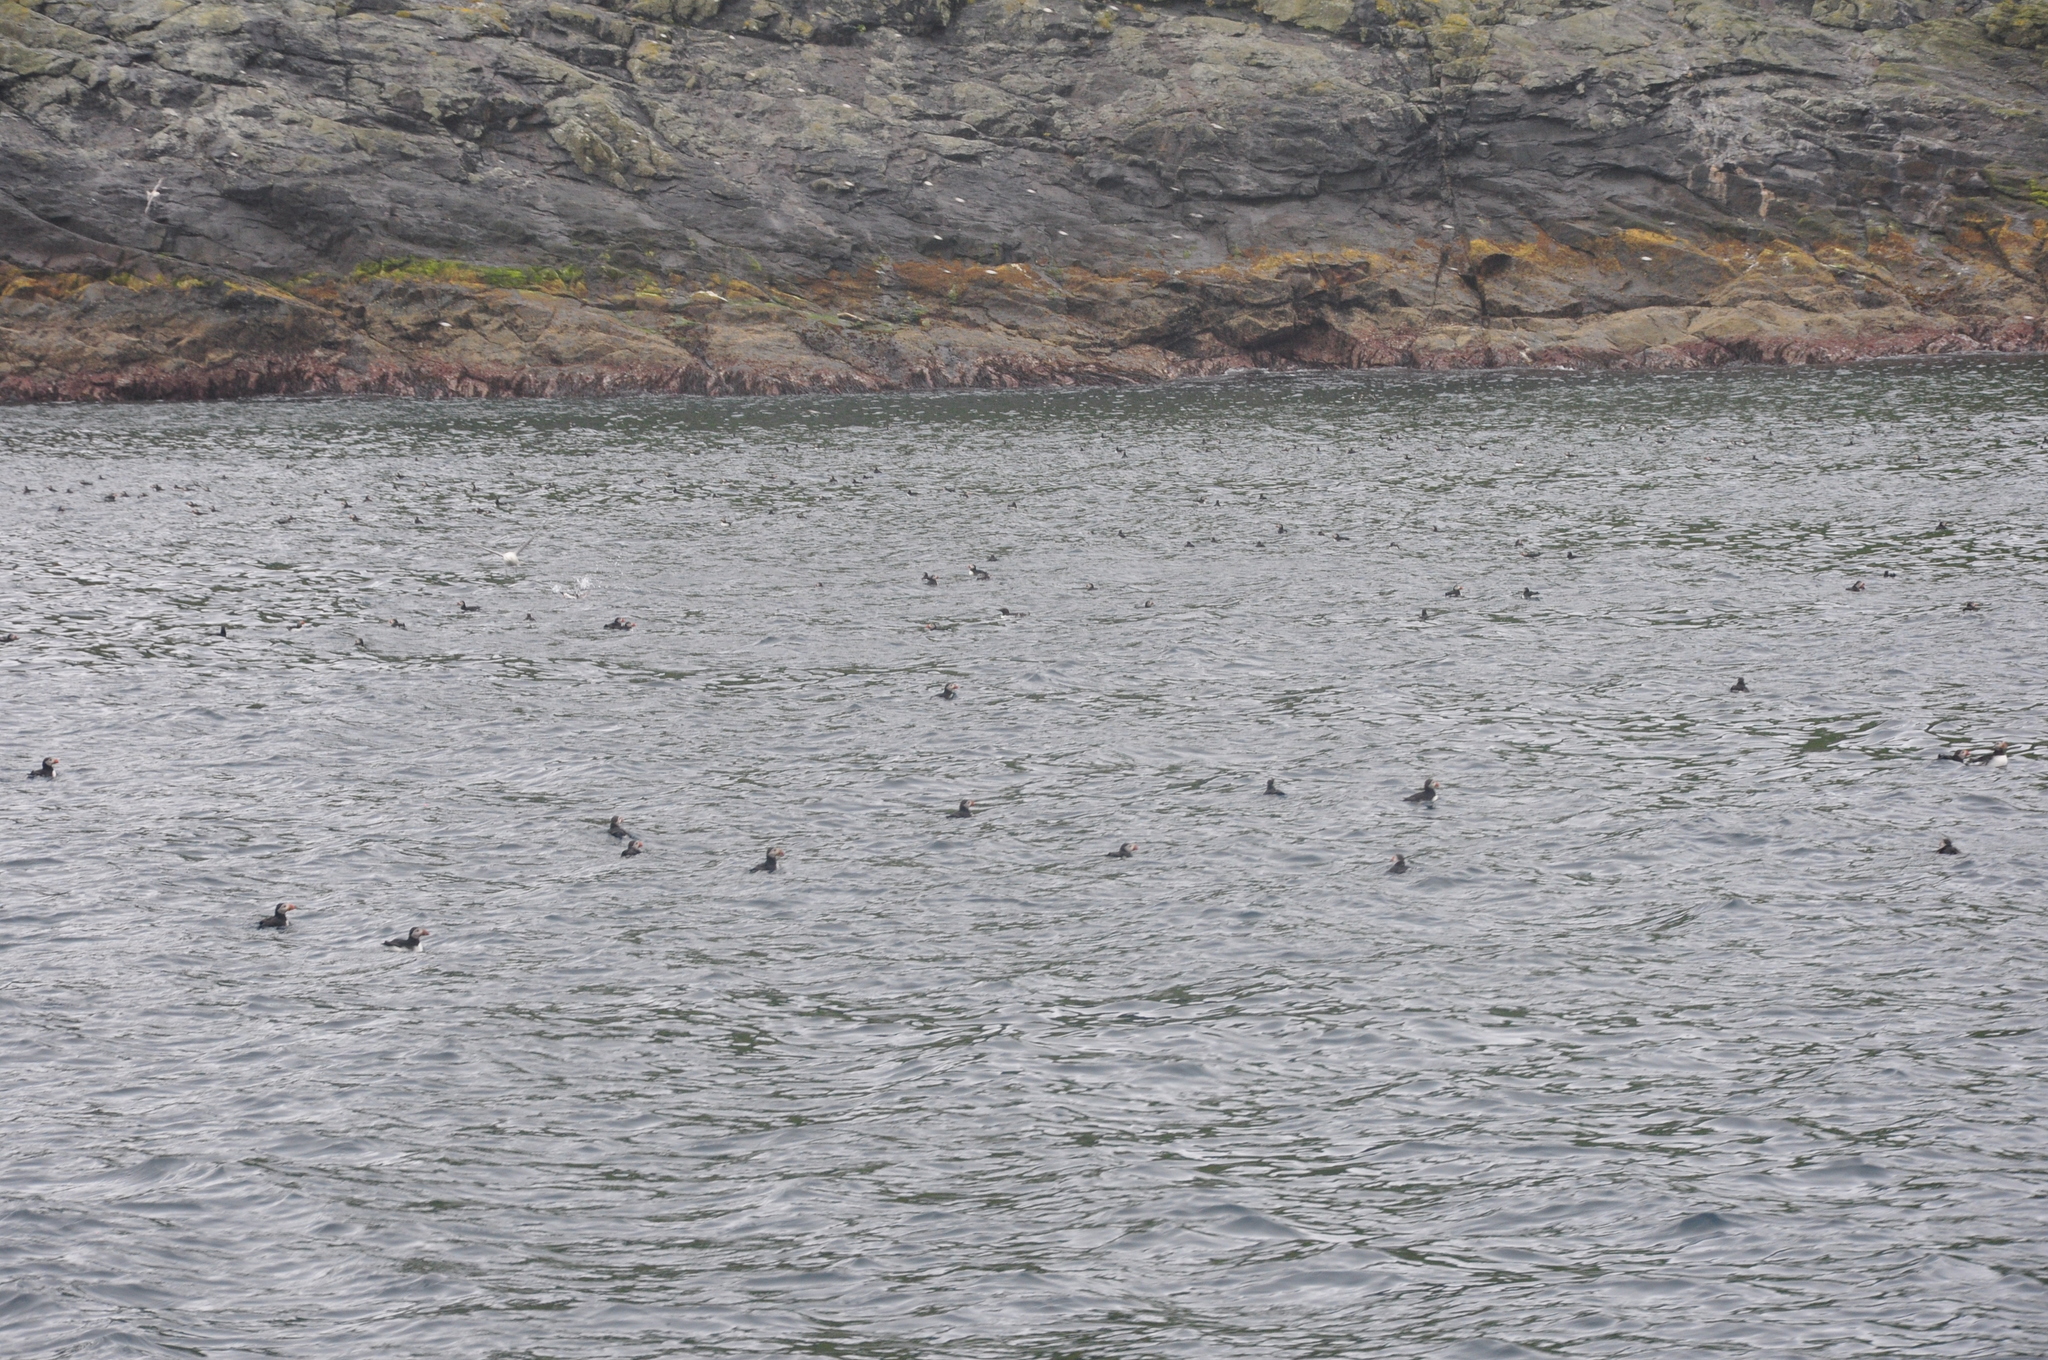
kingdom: Animalia
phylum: Chordata
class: Aves
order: Charadriiformes
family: Alcidae
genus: Fratercula
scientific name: Fratercula arctica
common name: Atlantic puffin
